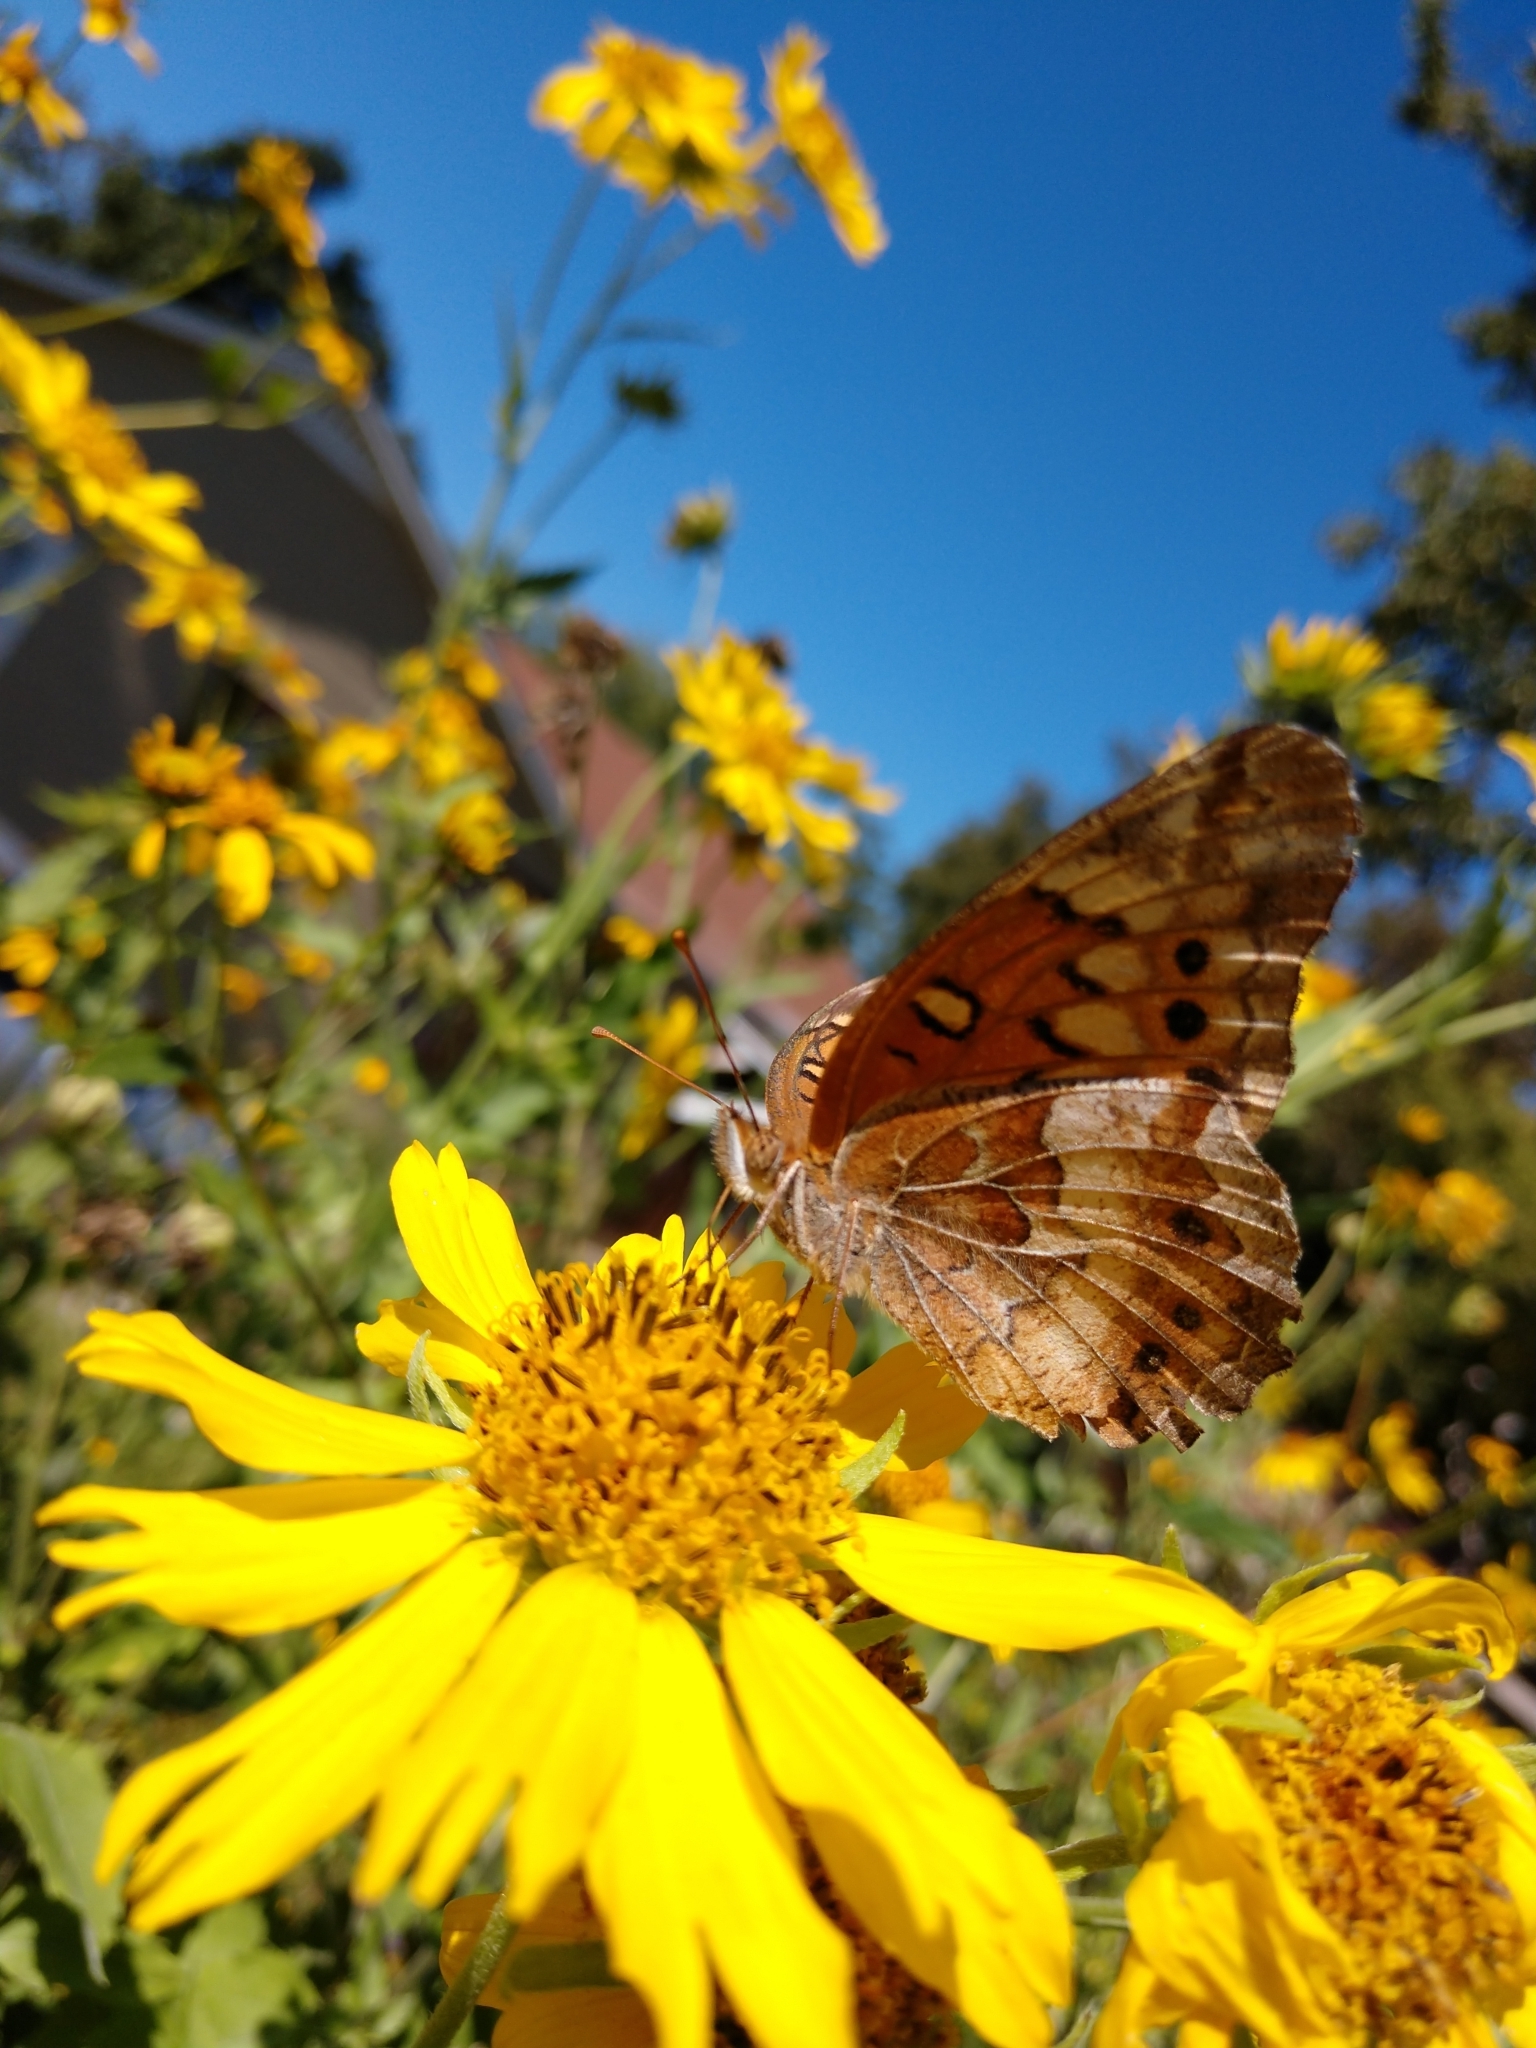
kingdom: Animalia
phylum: Arthropoda
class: Insecta
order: Lepidoptera
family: Nymphalidae
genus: Euptoieta
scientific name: Euptoieta claudia
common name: Variegated fritillary
